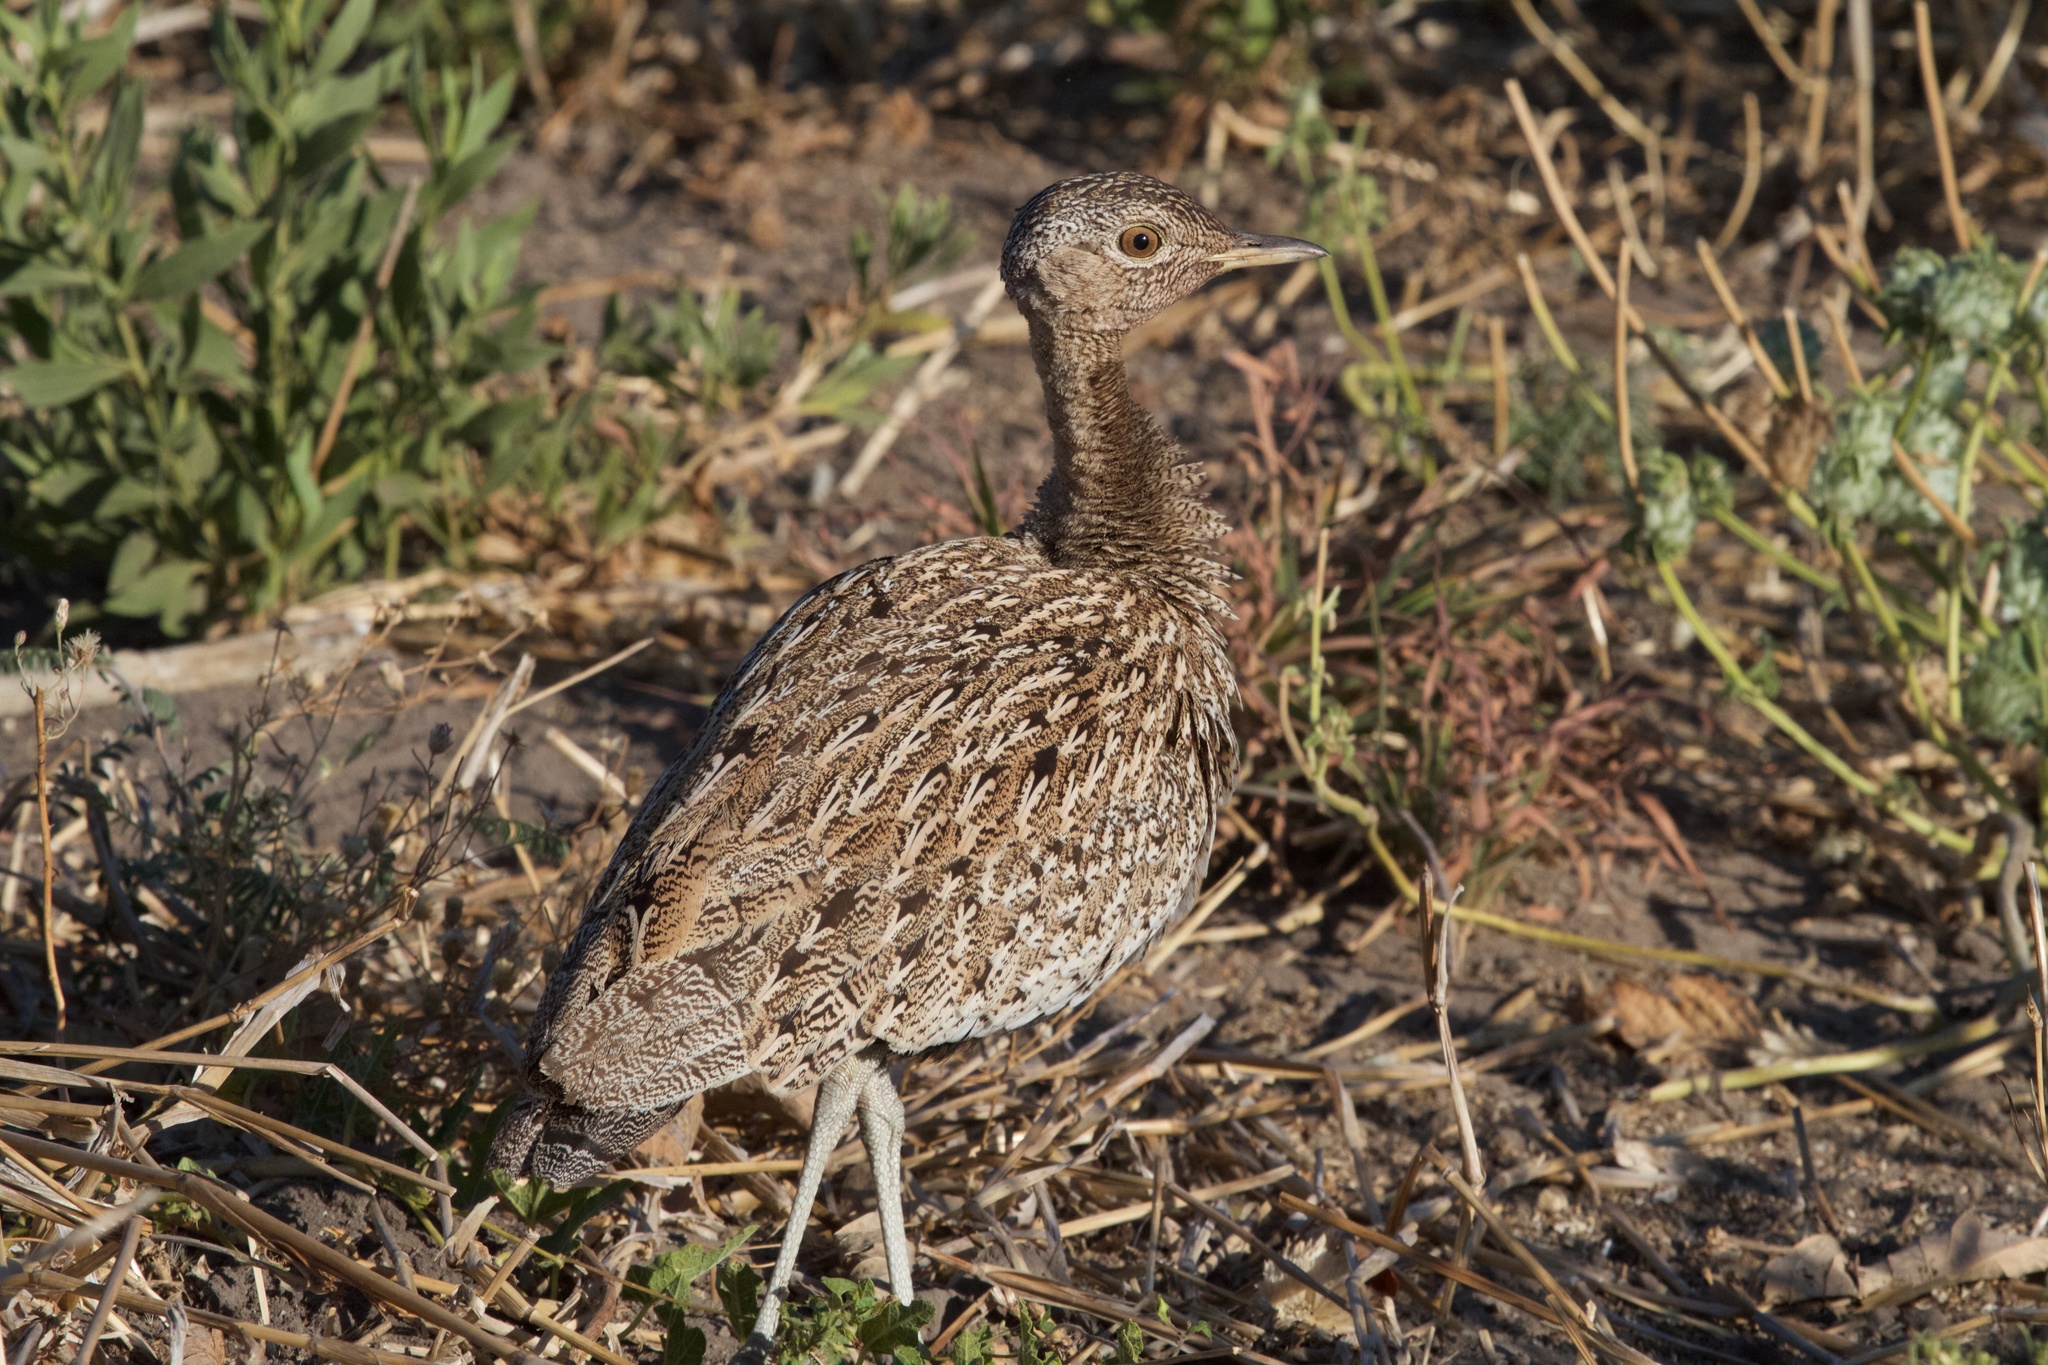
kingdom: Animalia
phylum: Chordata
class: Aves
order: Otidiformes
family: Otididae
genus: Lophotis
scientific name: Lophotis ruficrista
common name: Red-crested korhaan
